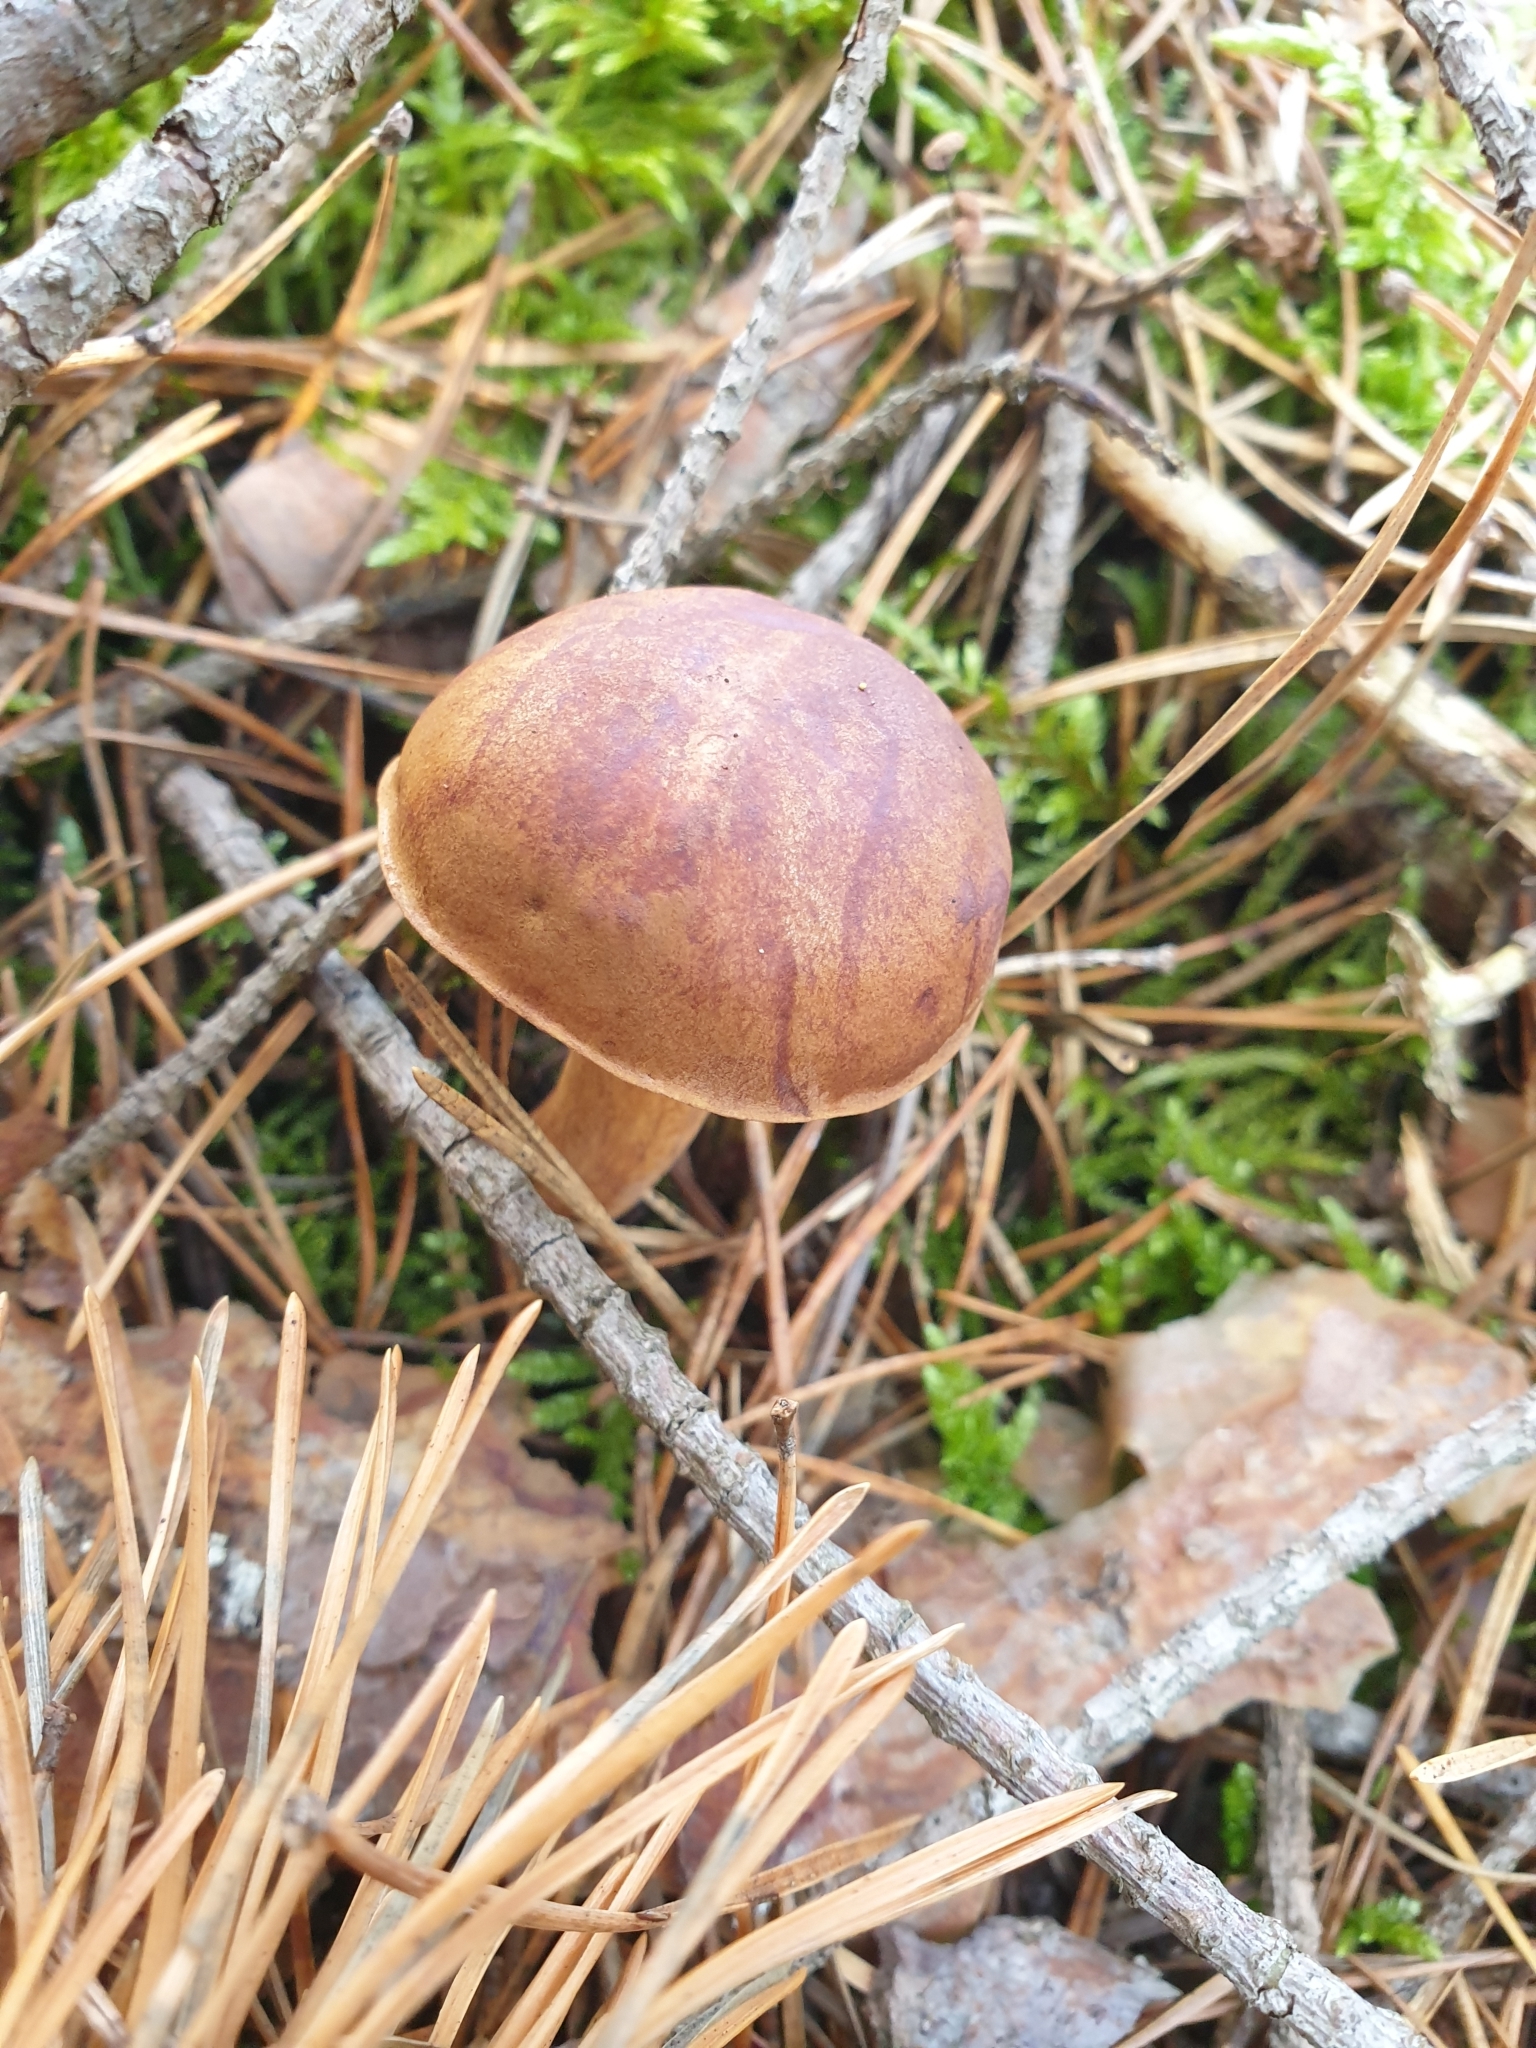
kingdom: Fungi
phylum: Basidiomycota
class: Agaricomycetes
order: Boletales
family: Boletaceae
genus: Imleria
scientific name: Imleria badia
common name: Bay bolete
